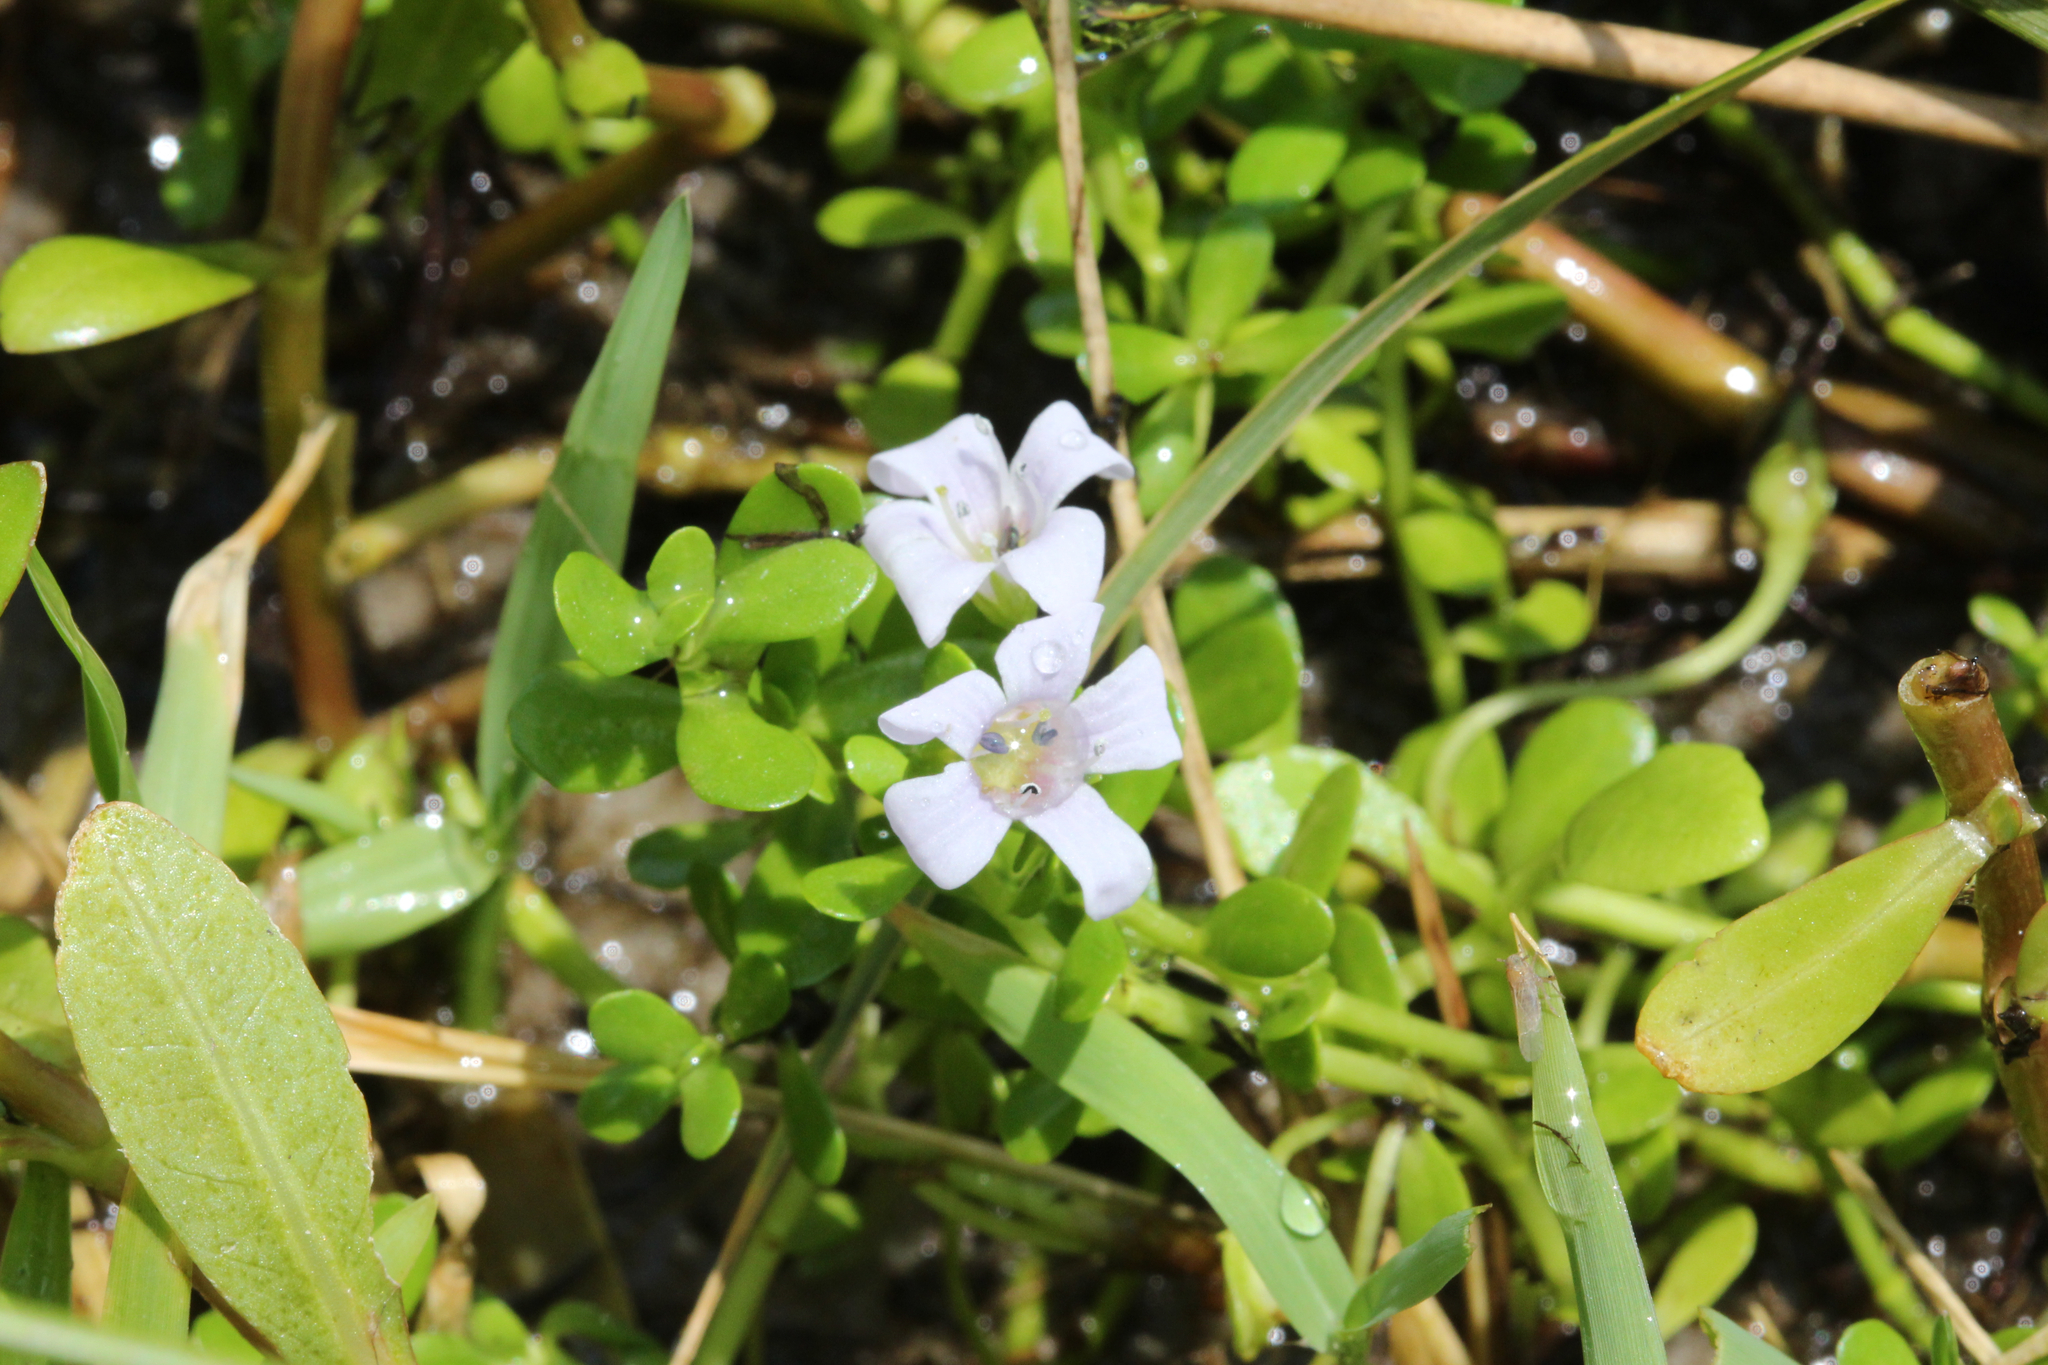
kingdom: Plantae
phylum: Tracheophyta
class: Magnoliopsida
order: Lamiales
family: Plantaginaceae
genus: Bacopa
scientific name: Bacopa monnieri
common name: Indian-pennywort
